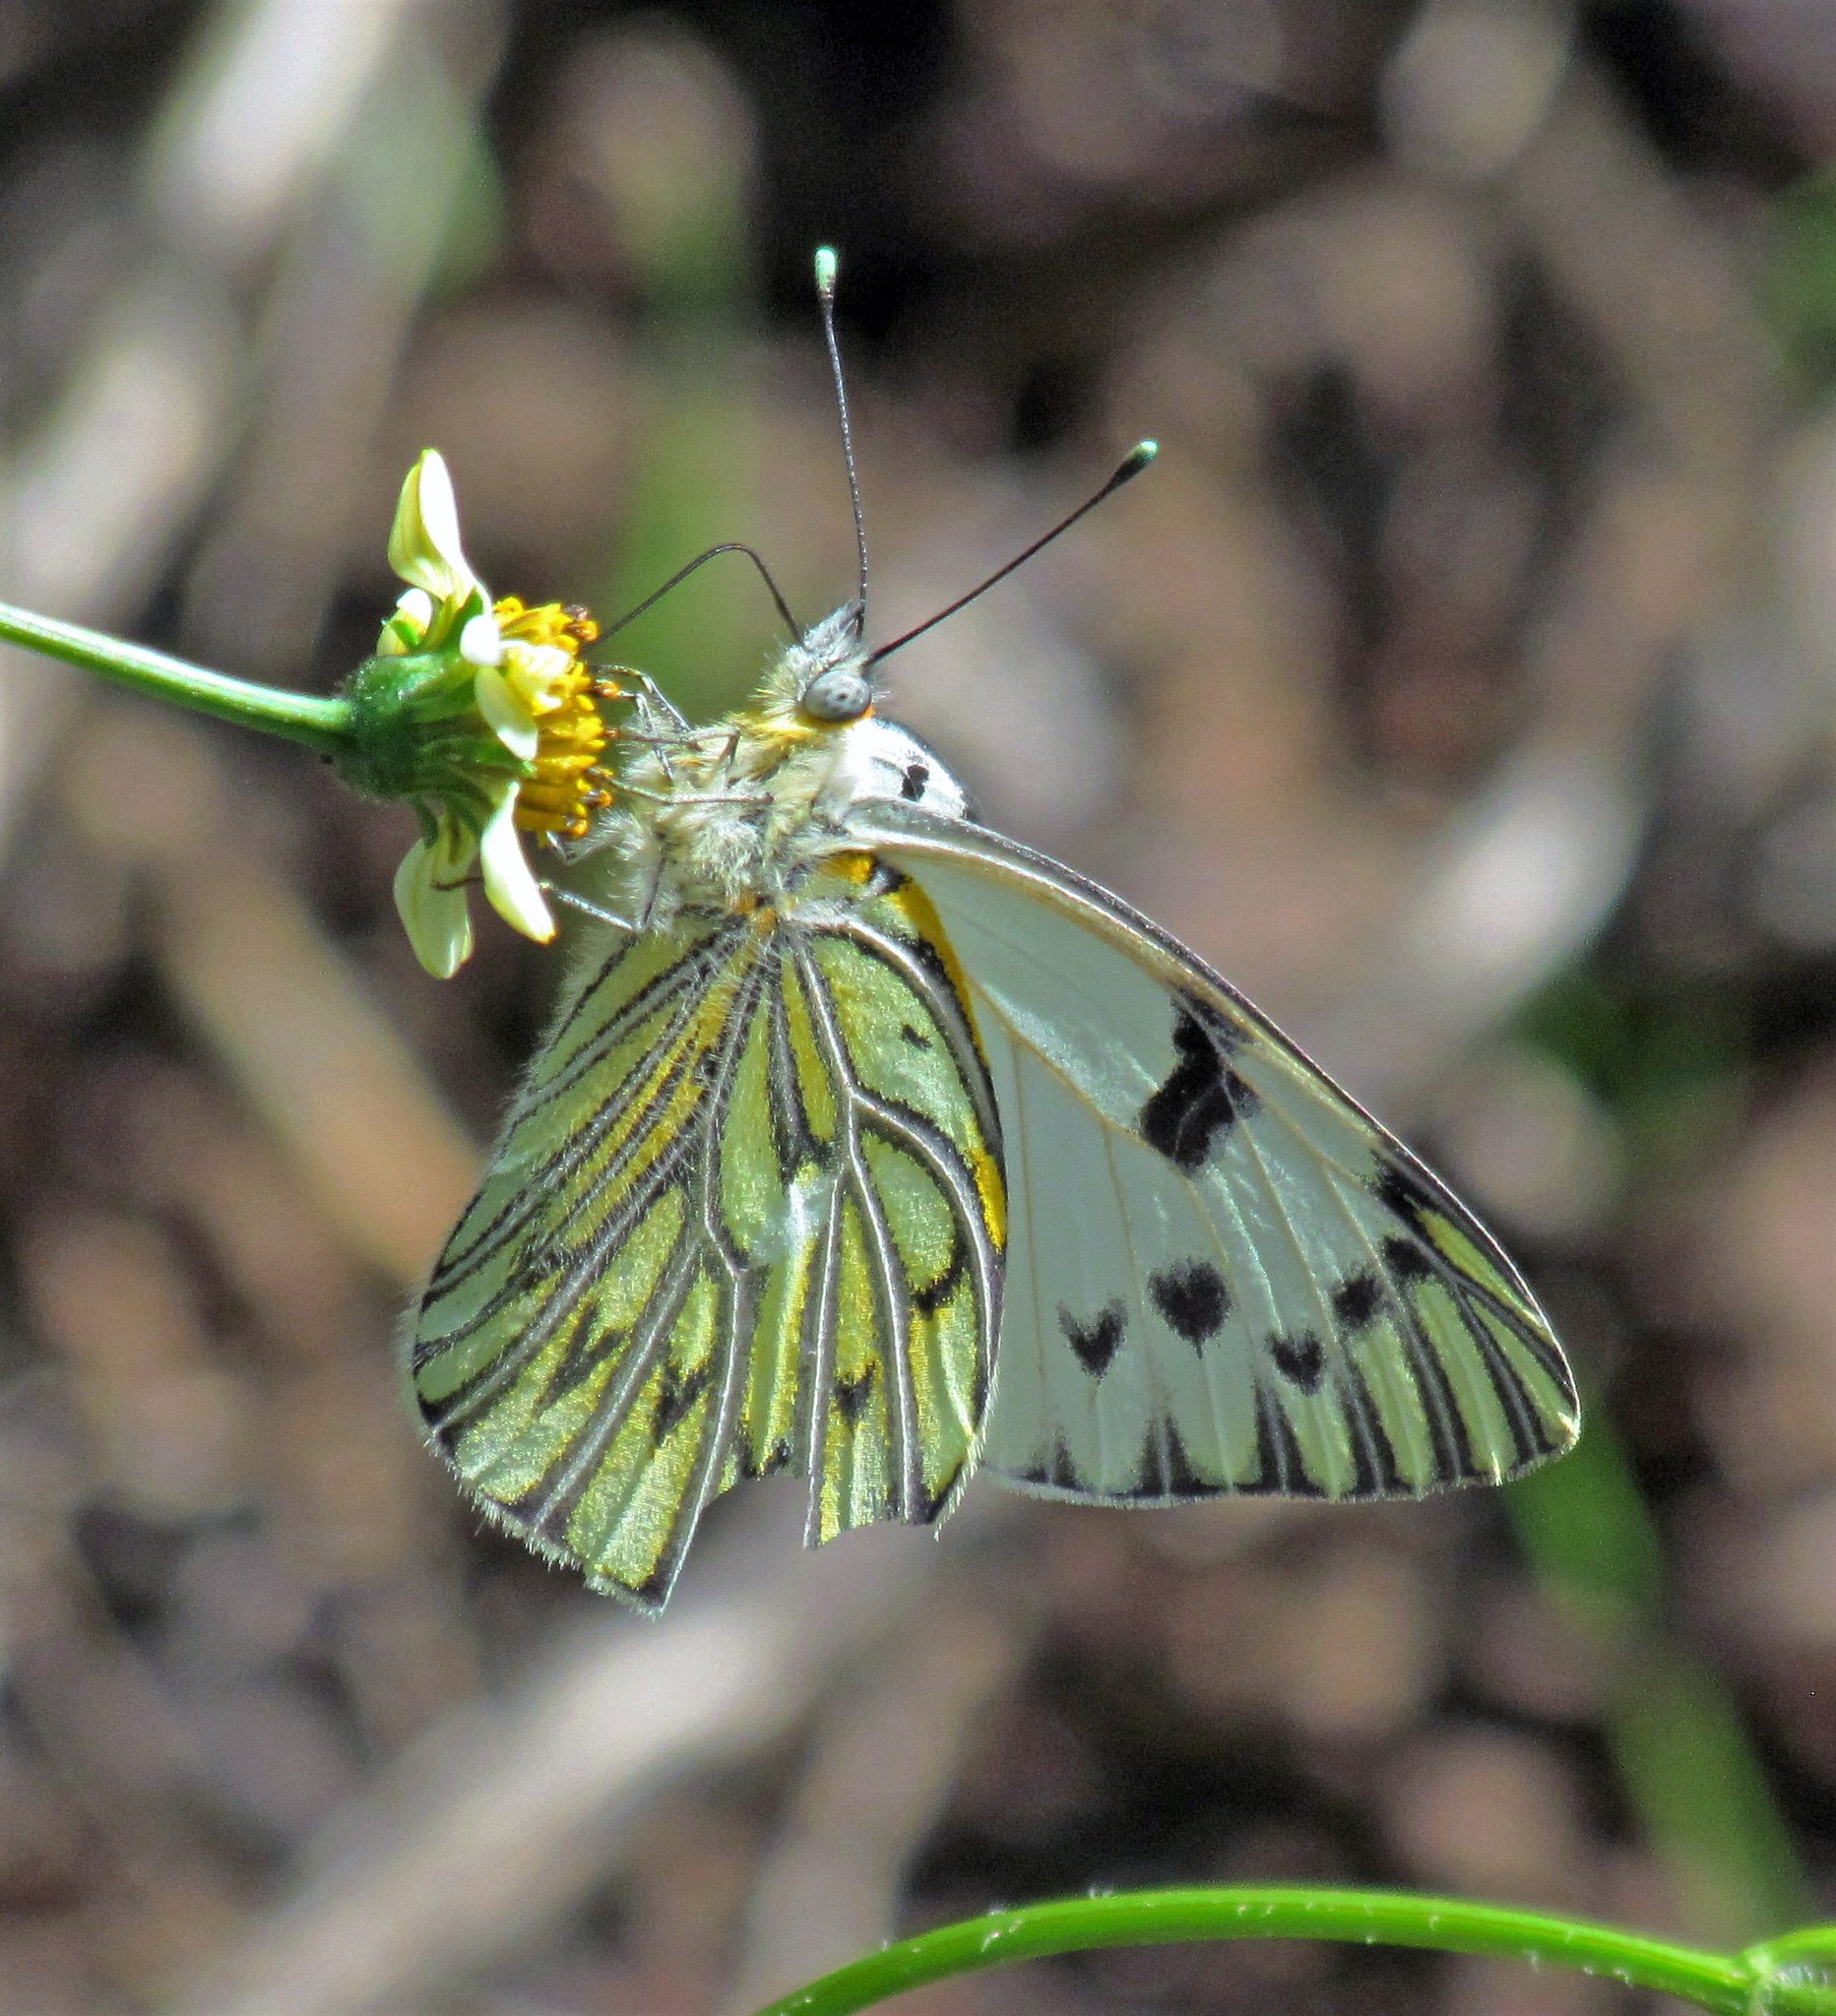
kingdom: Animalia
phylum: Arthropoda
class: Insecta
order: Lepidoptera
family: Pieridae
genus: Tatochila
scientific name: Tatochila autodice
